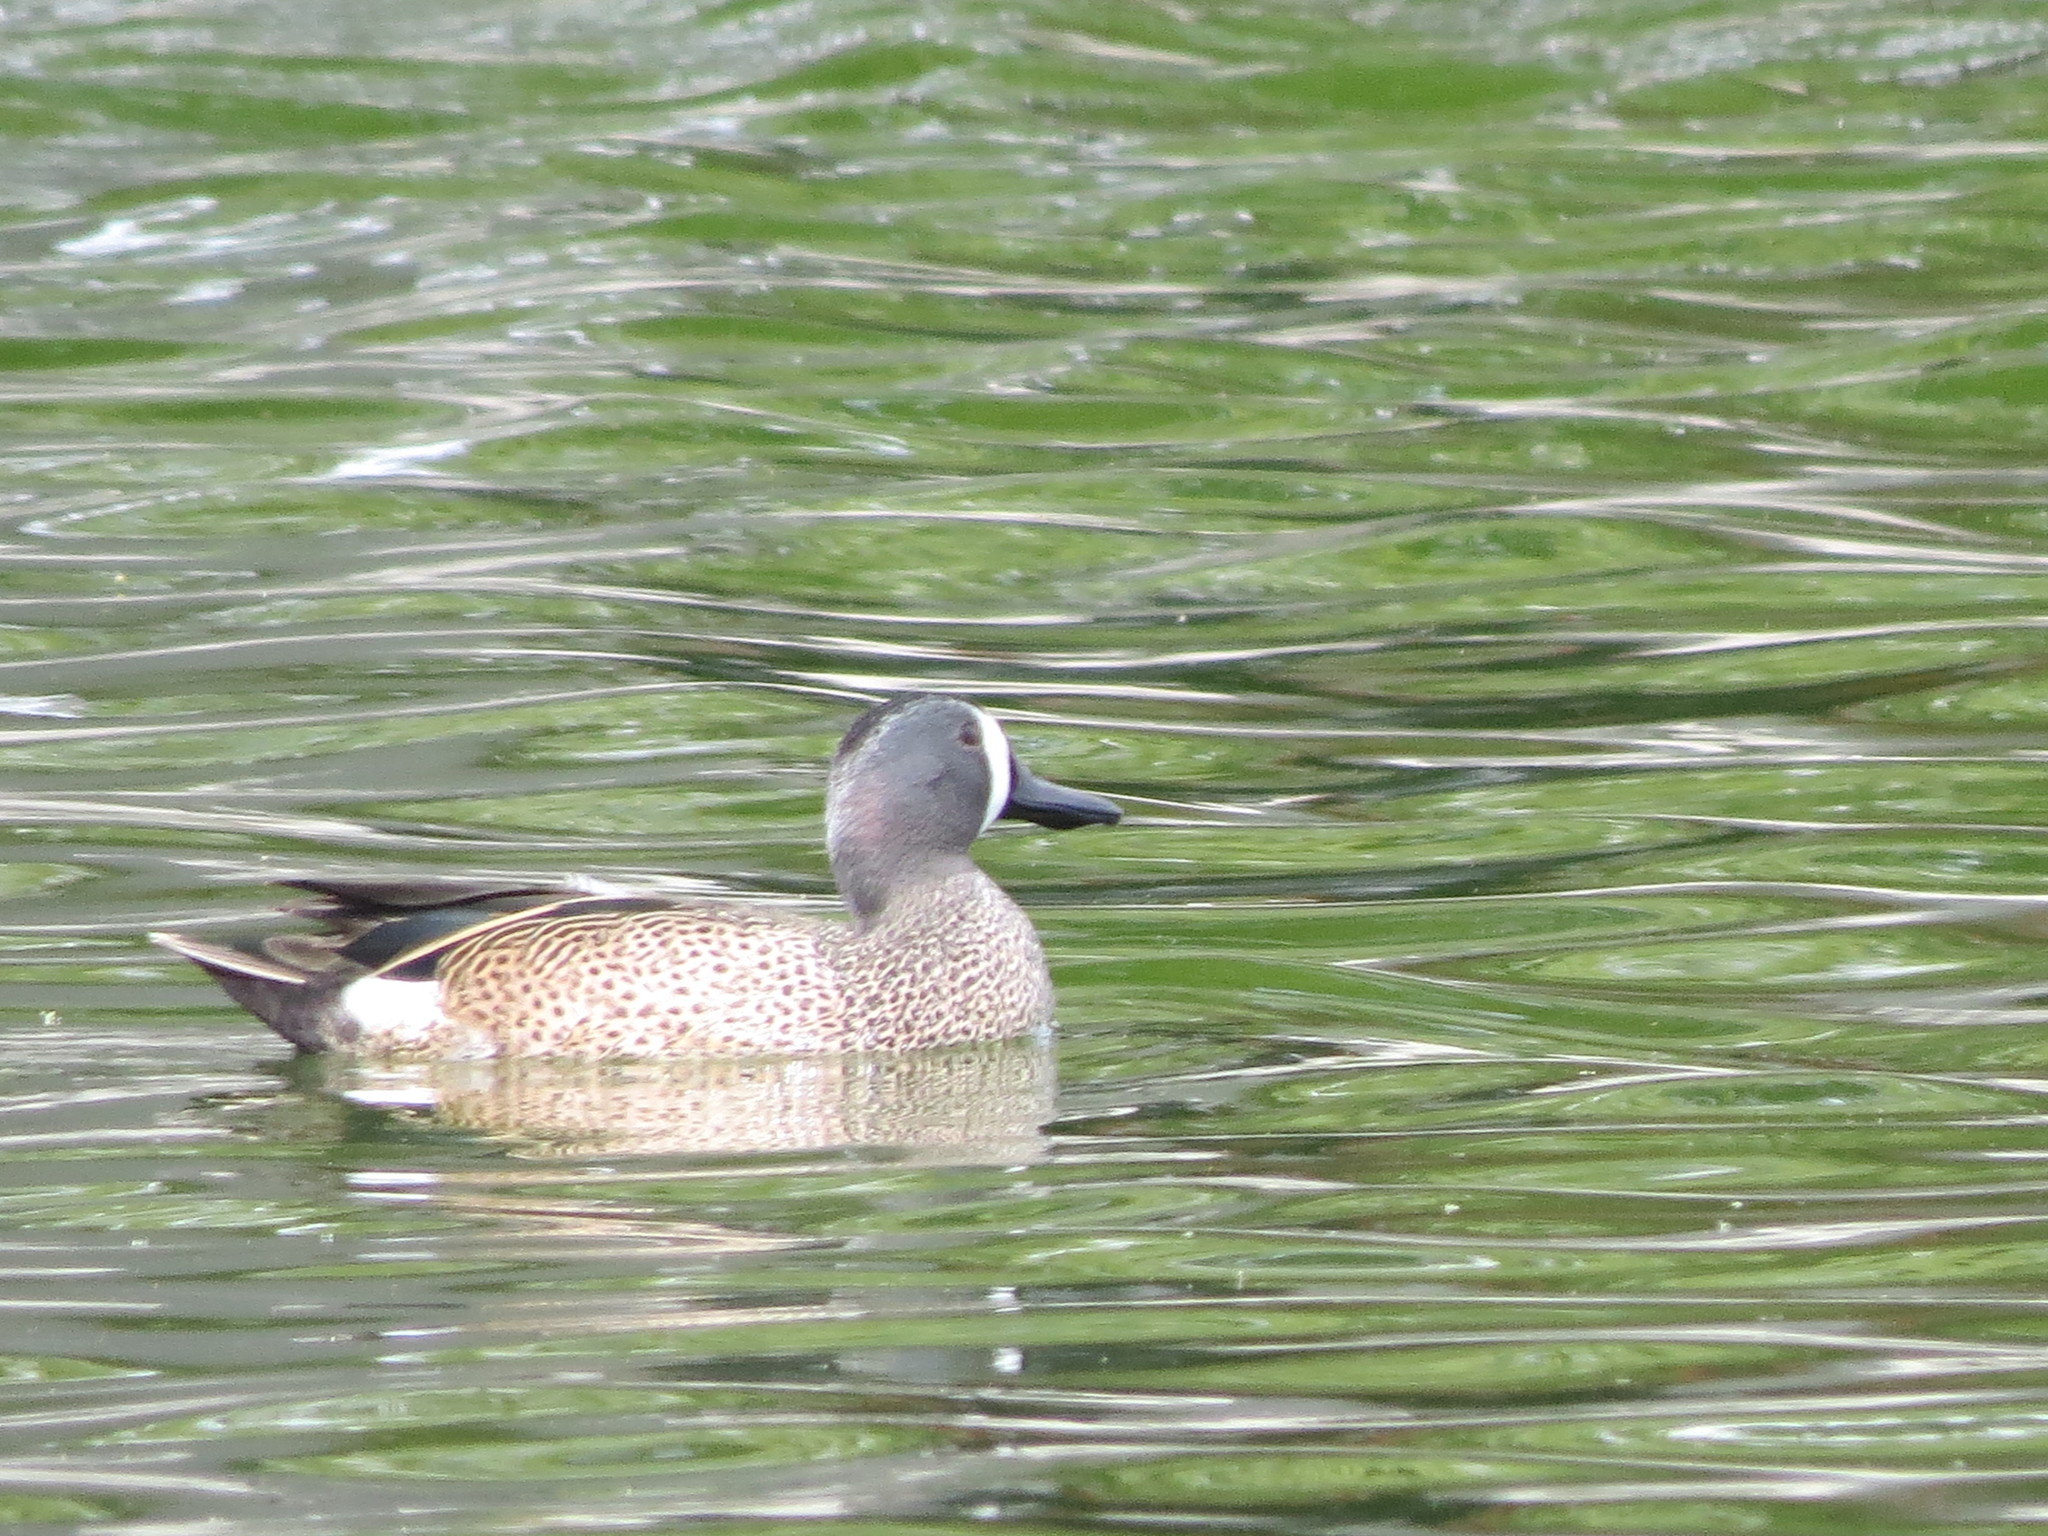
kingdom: Animalia
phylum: Chordata
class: Aves
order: Anseriformes
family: Anatidae
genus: Spatula
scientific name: Spatula discors
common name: Blue-winged teal
